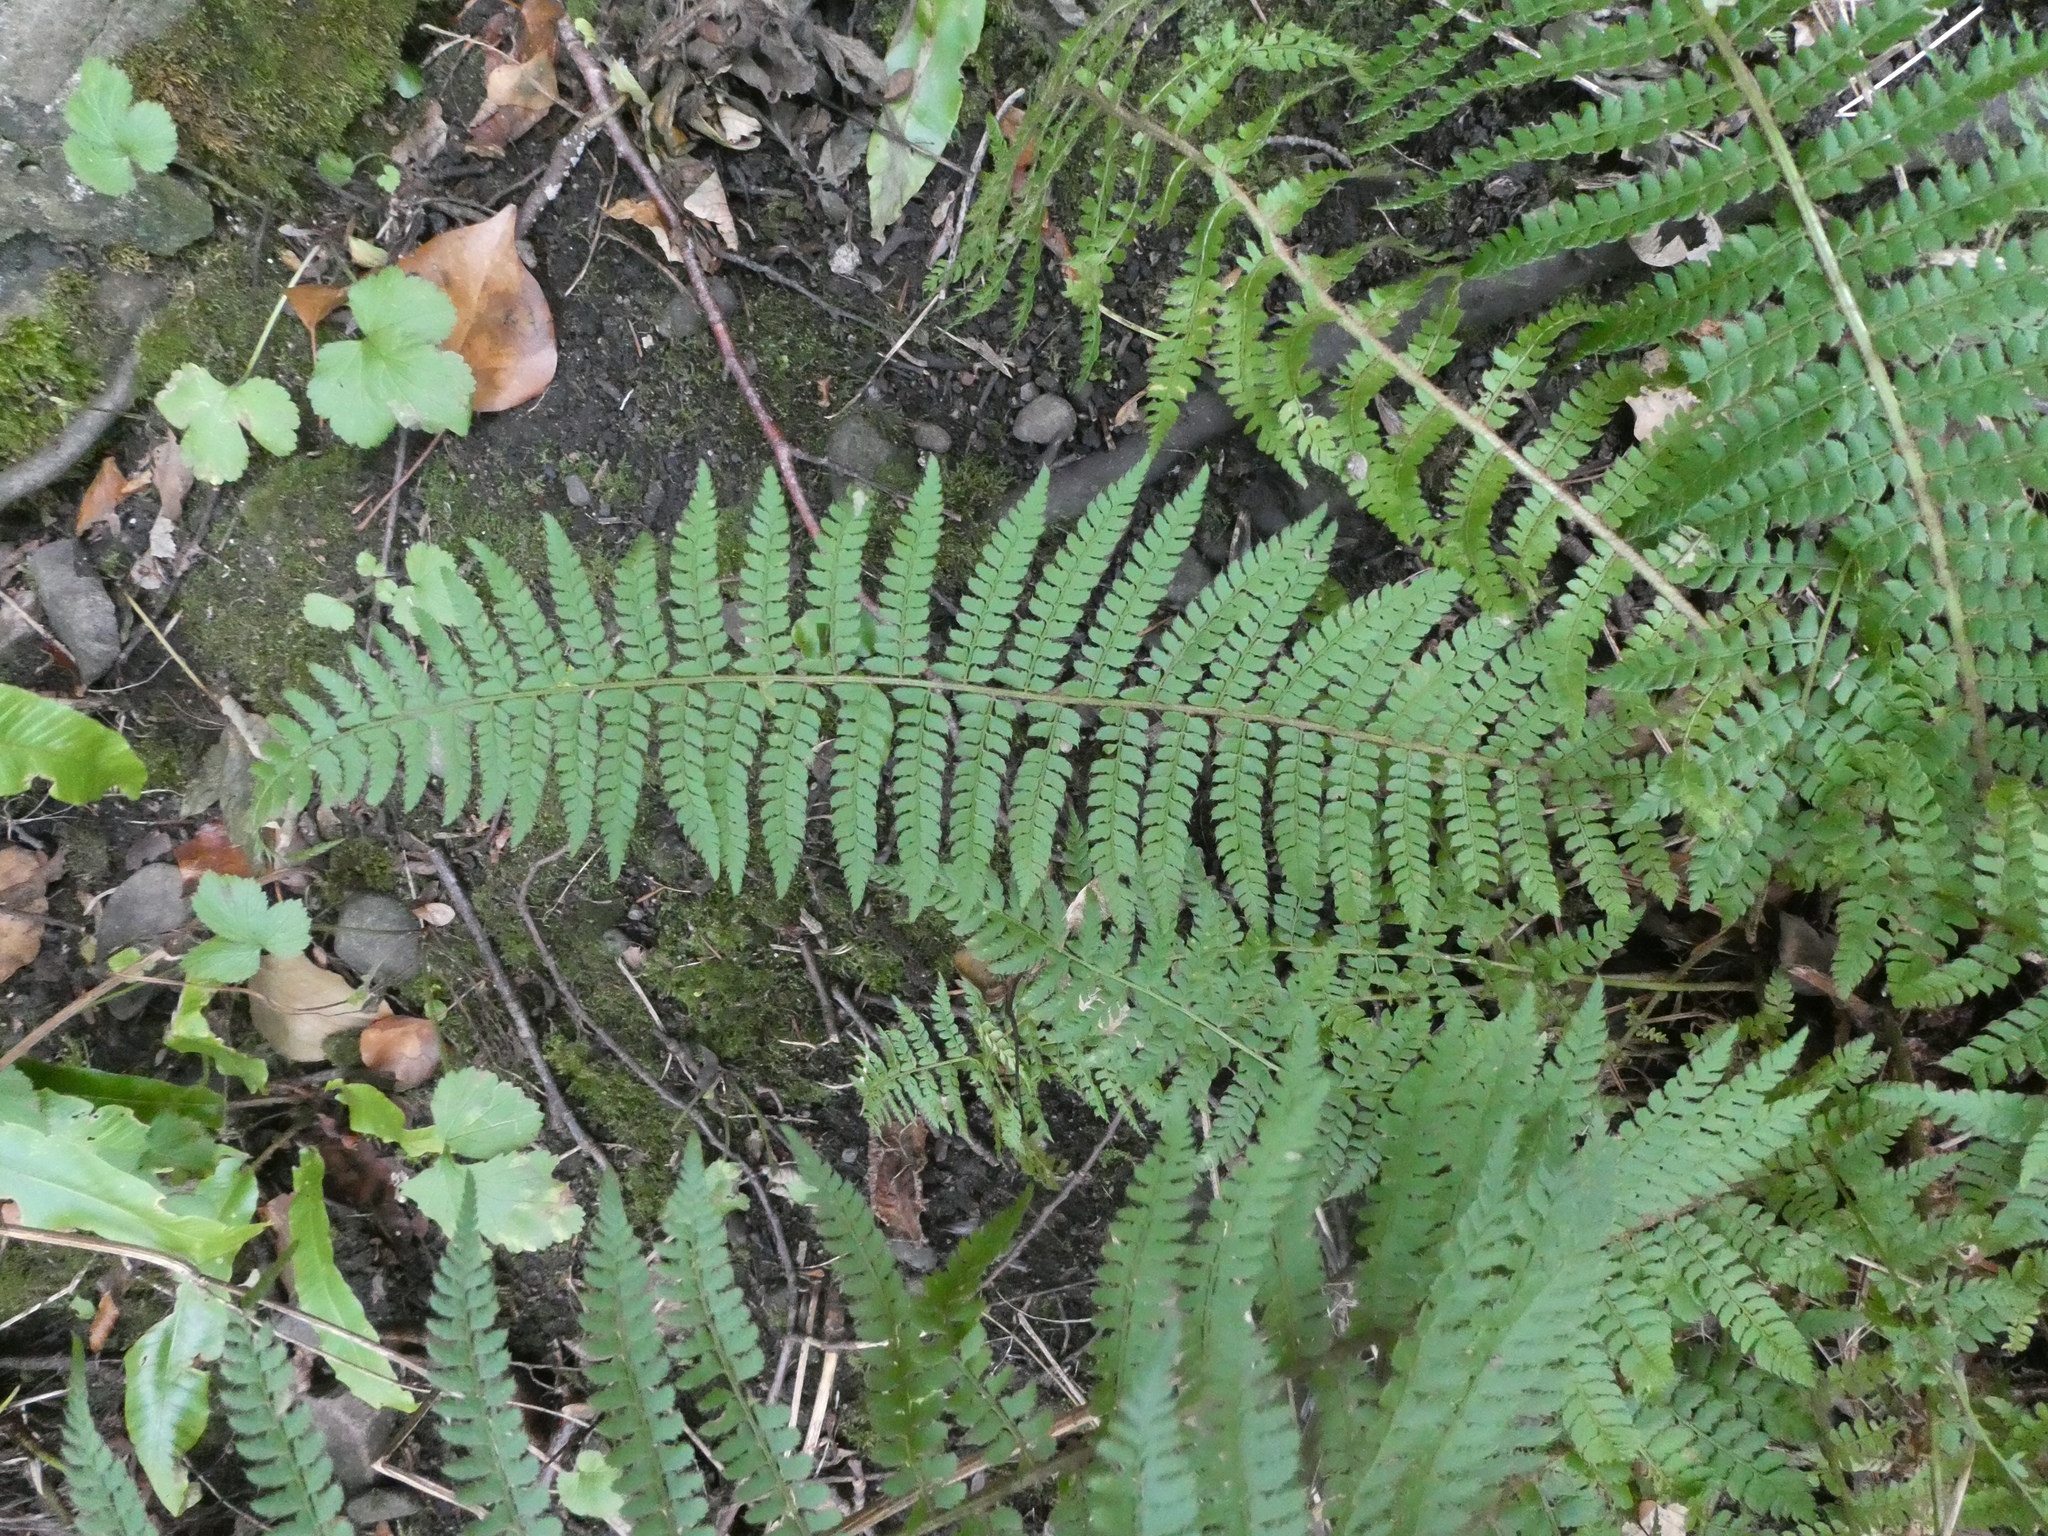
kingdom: Plantae
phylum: Tracheophyta
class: Polypodiopsida
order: Polypodiales
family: Dryopteridaceae
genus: Polystichum
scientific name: Polystichum setiferum
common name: Soft shield-fern
